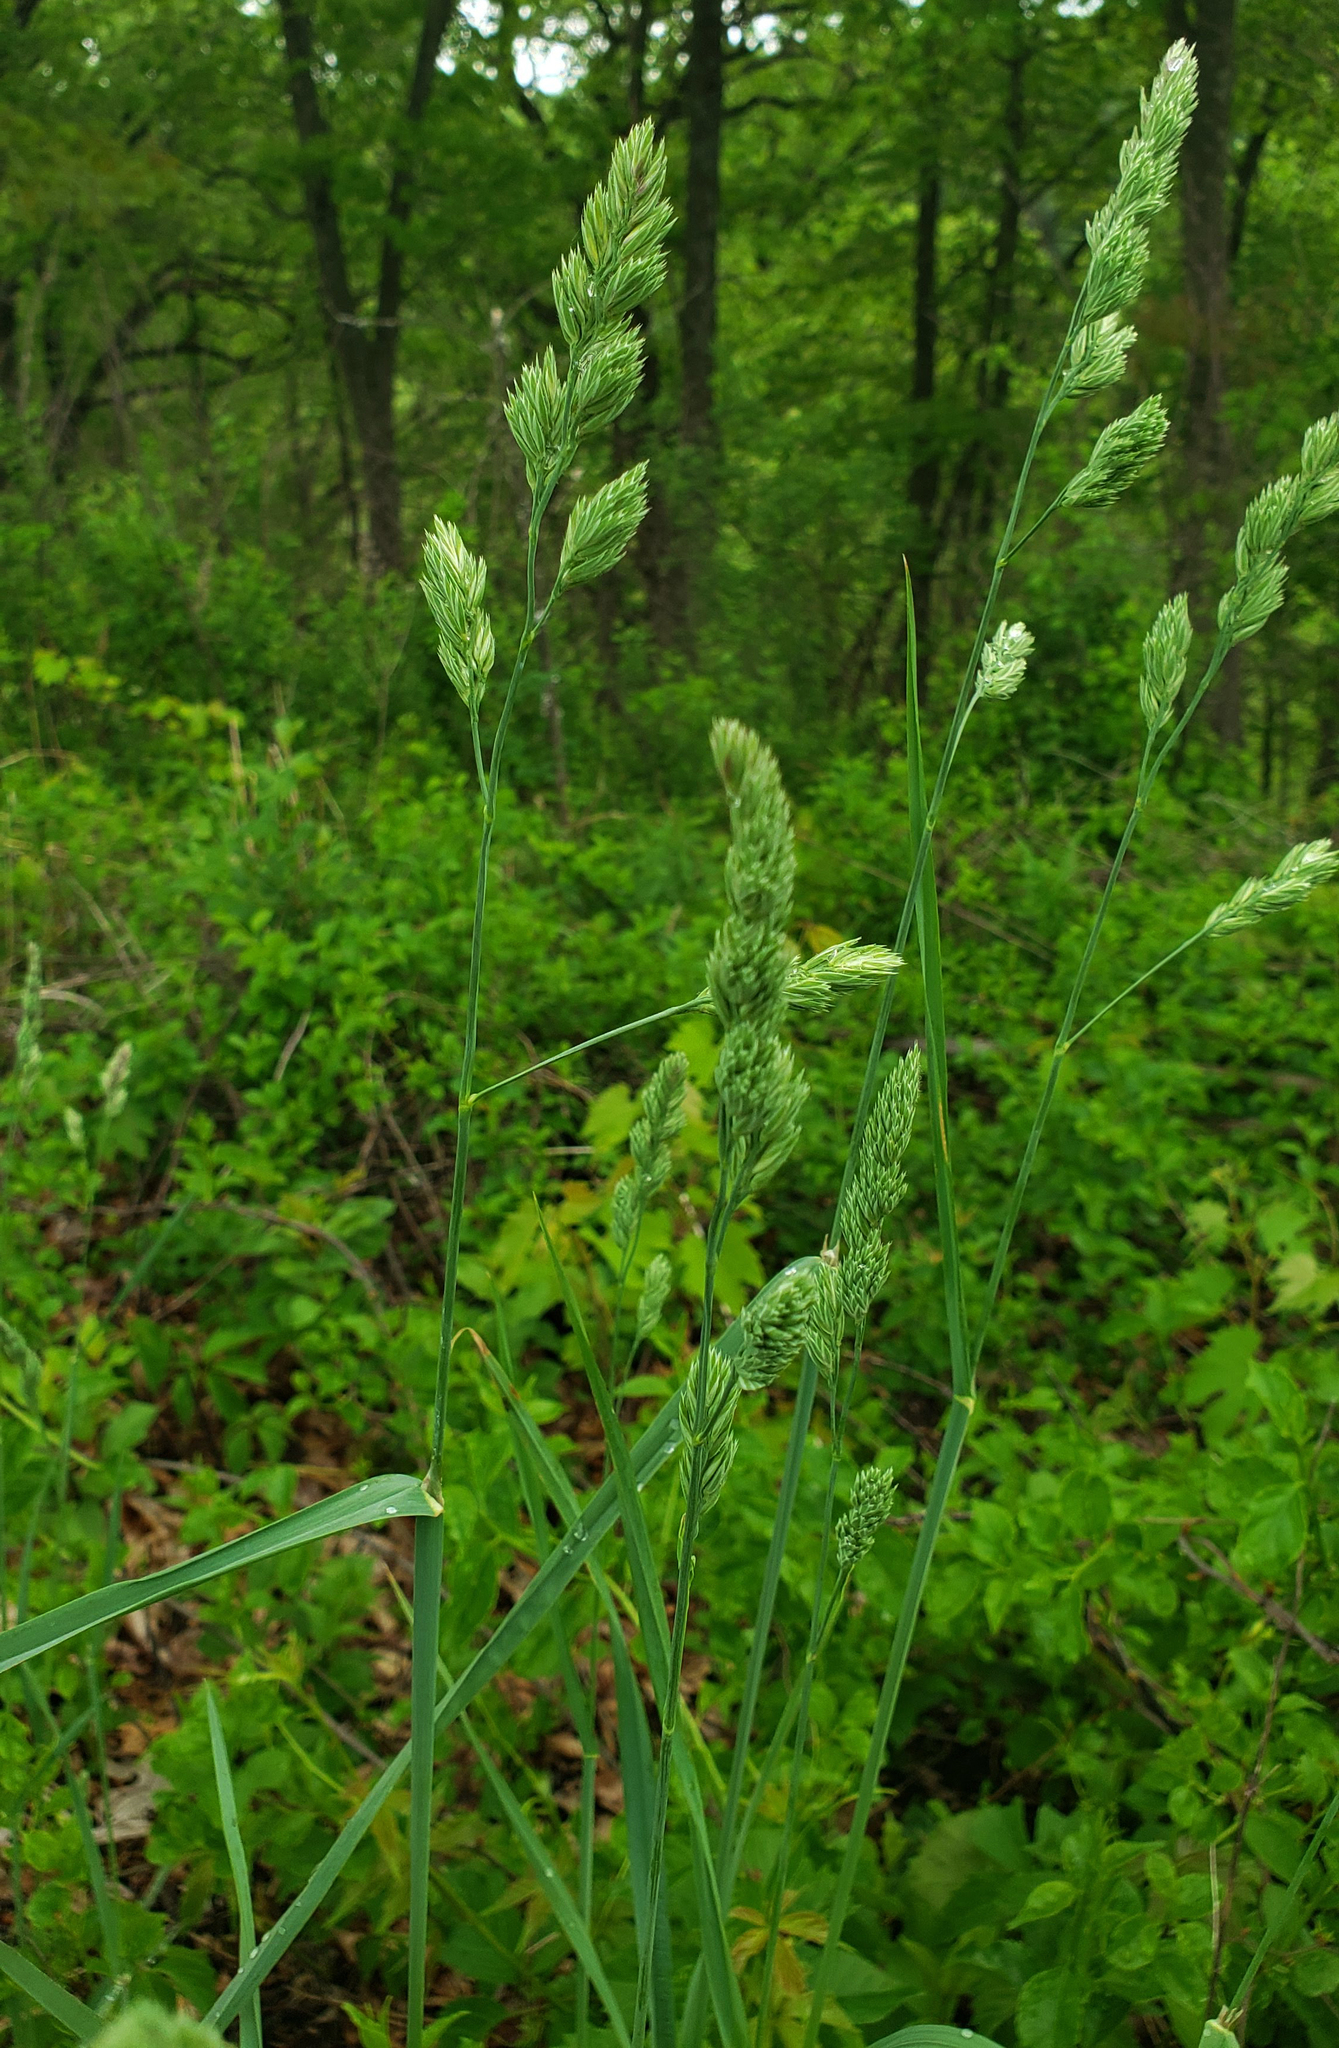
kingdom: Plantae
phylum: Tracheophyta
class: Liliopsida
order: Poales
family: Poaceae
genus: Dactylis
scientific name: Dactylis glomerata
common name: Orchardgrass
